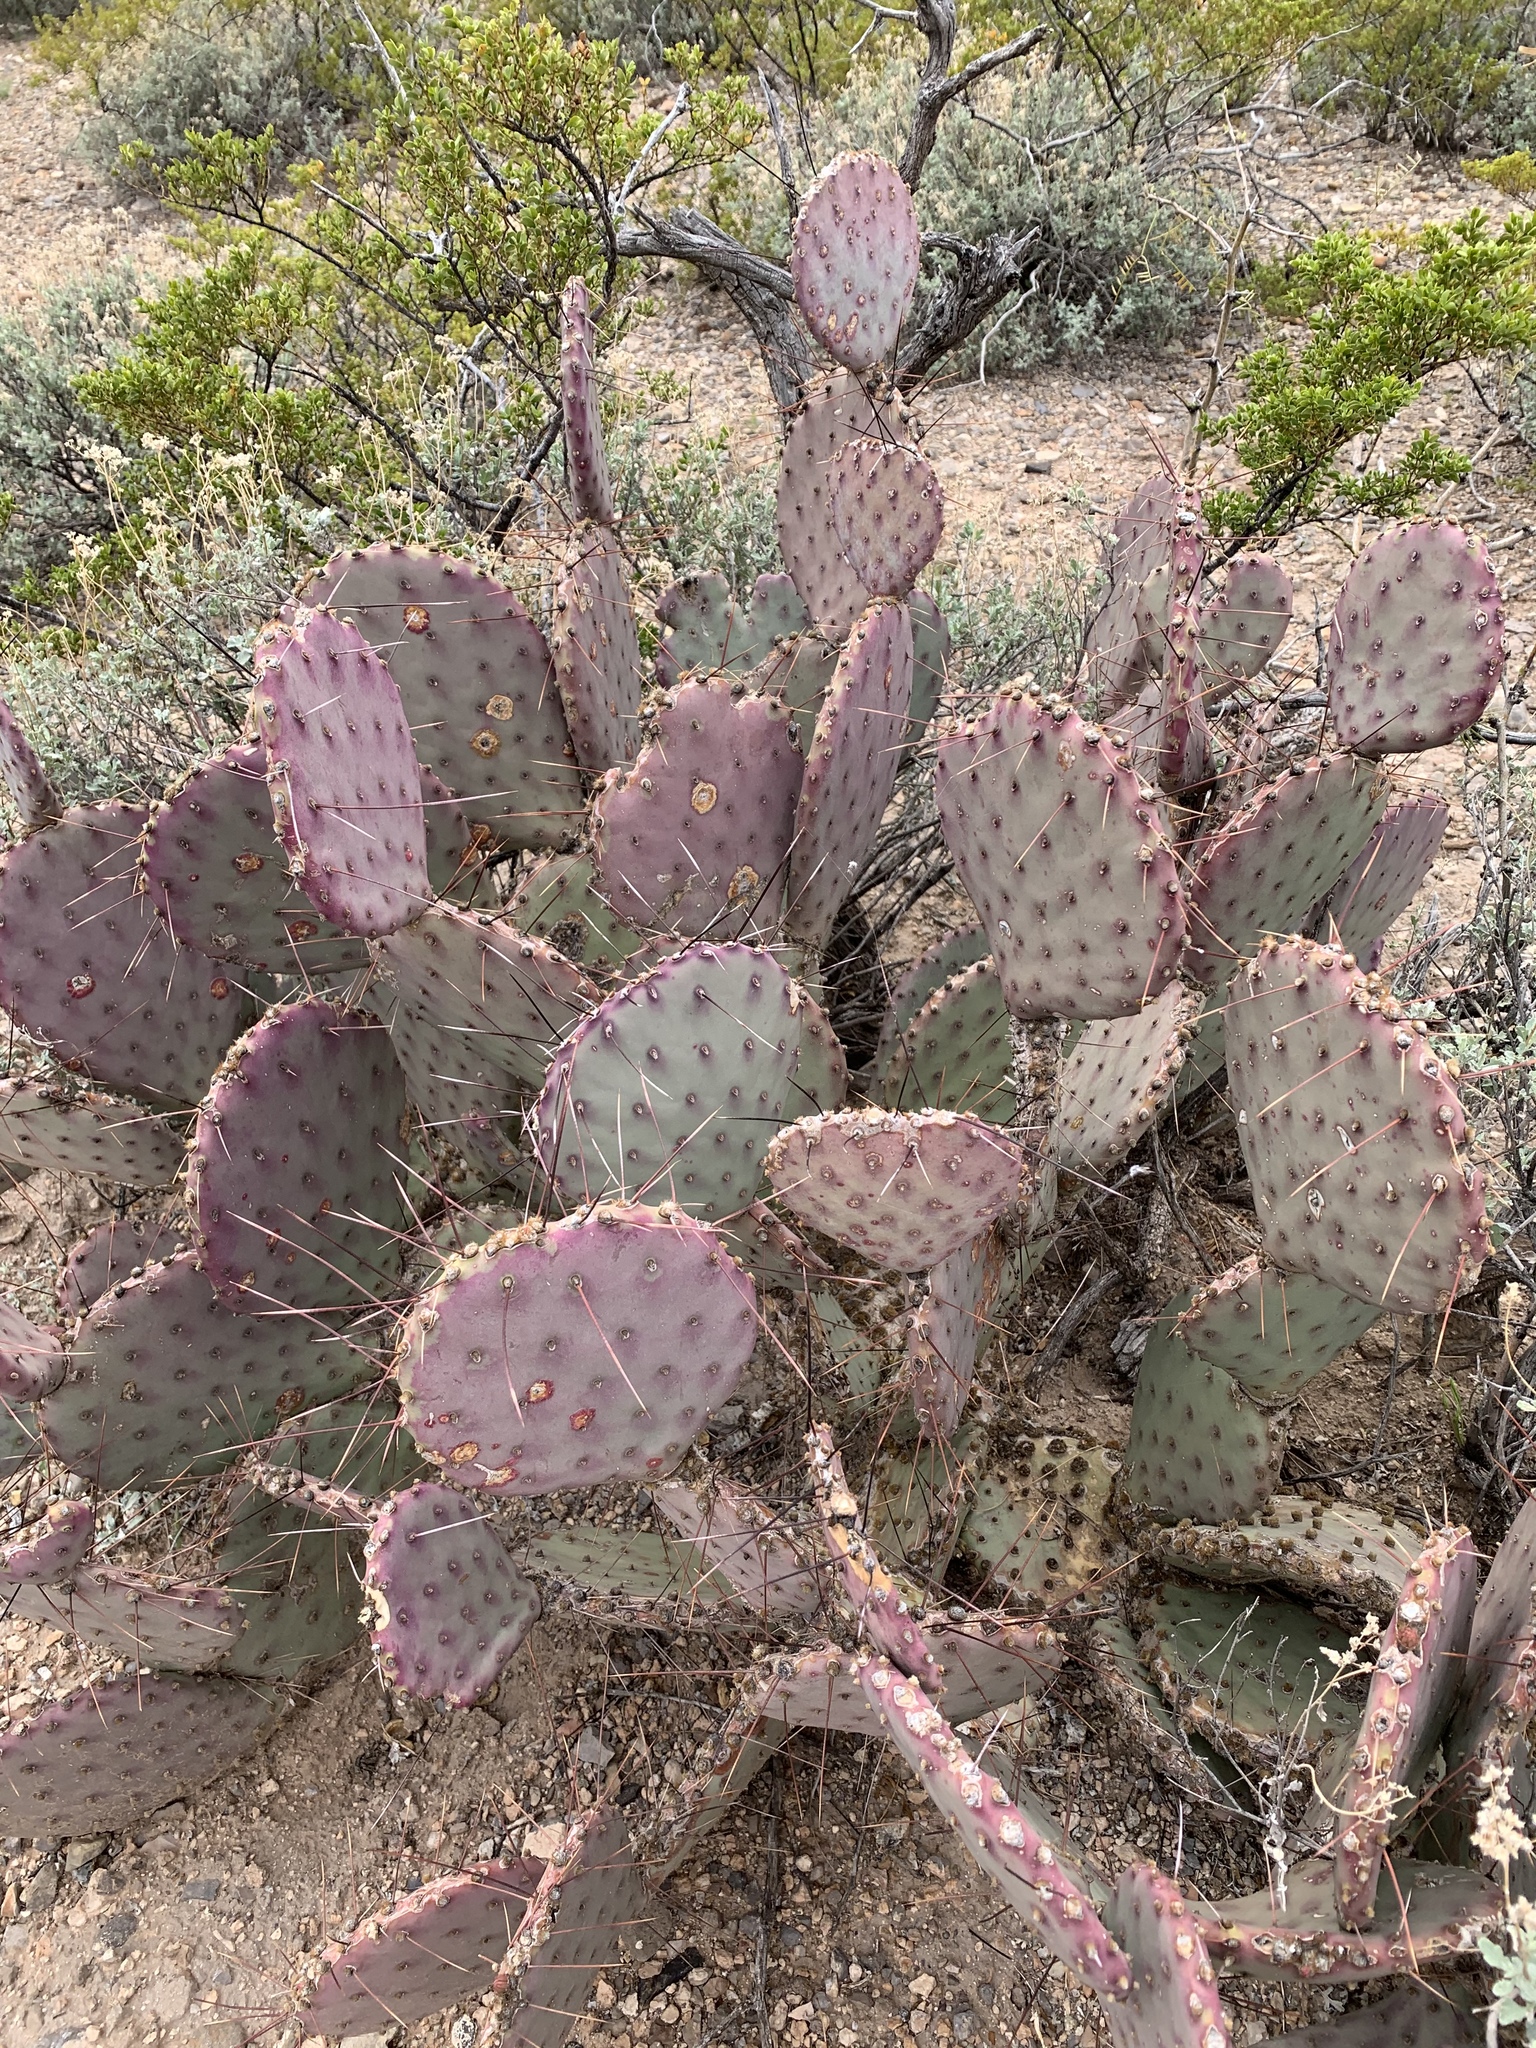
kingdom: Plantae
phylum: Tracheophyta
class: Magnoliopsida
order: Caryophyllales
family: Cactaceae
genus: Opuntia
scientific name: Opuntia macrocentra
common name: Purple prickly-pear
